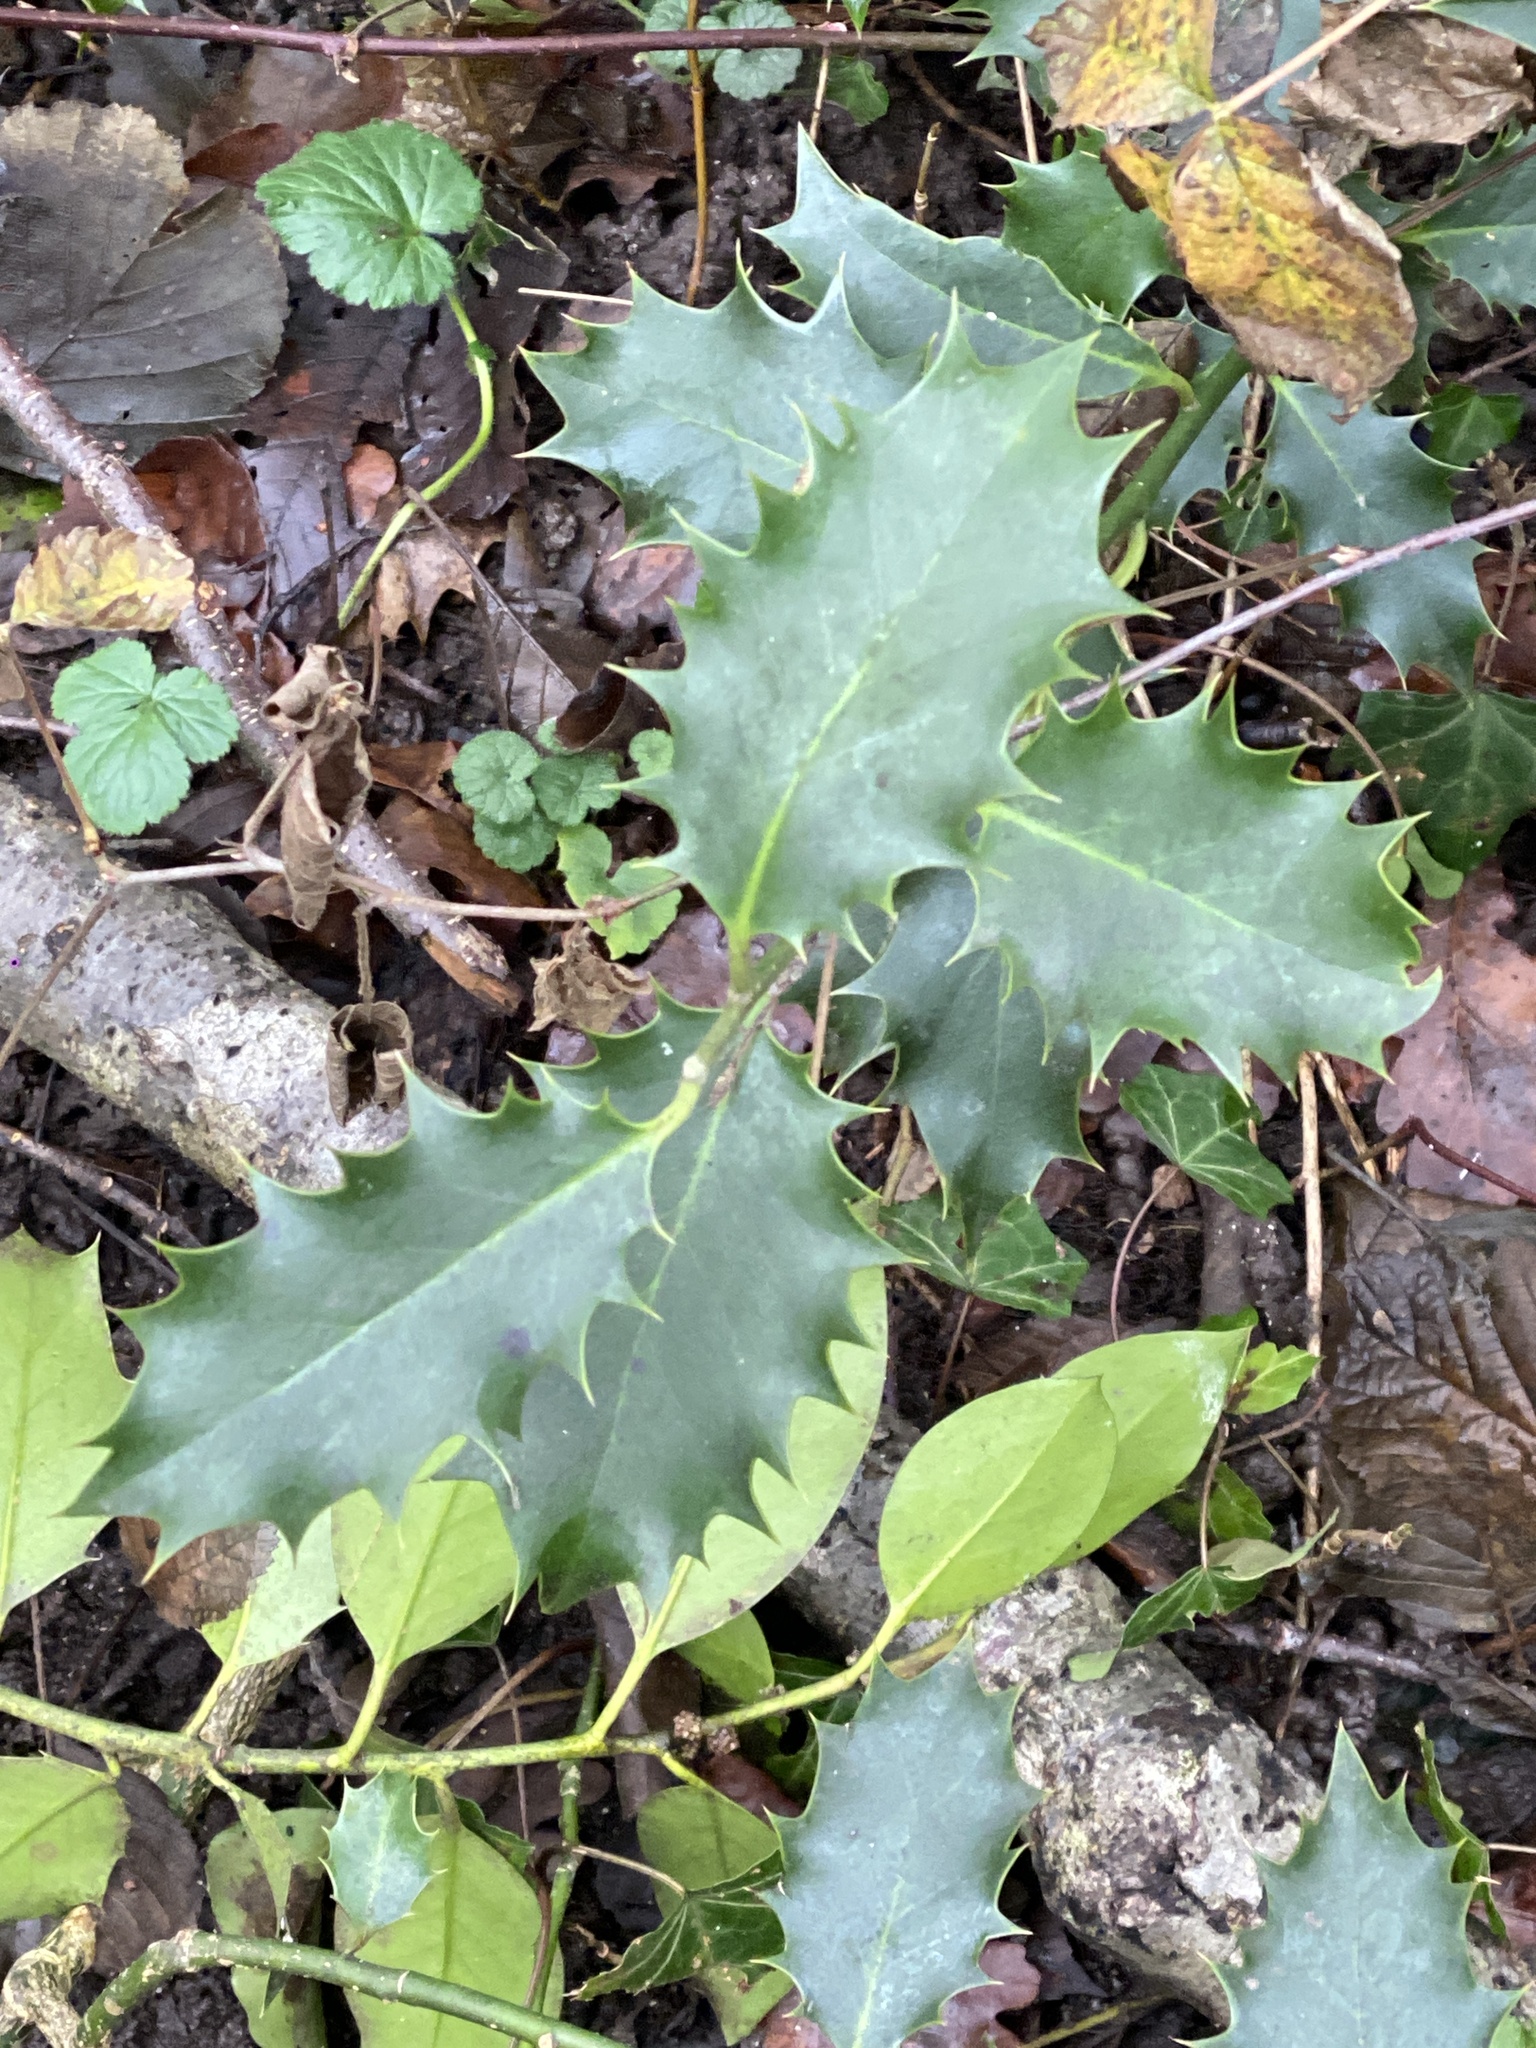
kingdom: Plantae
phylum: Tracheophyta
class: Magnoliopsida
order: Aquifoliales
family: Aquifoliaceae
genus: Ilex
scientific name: Ilex aquifolium
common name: English holly
